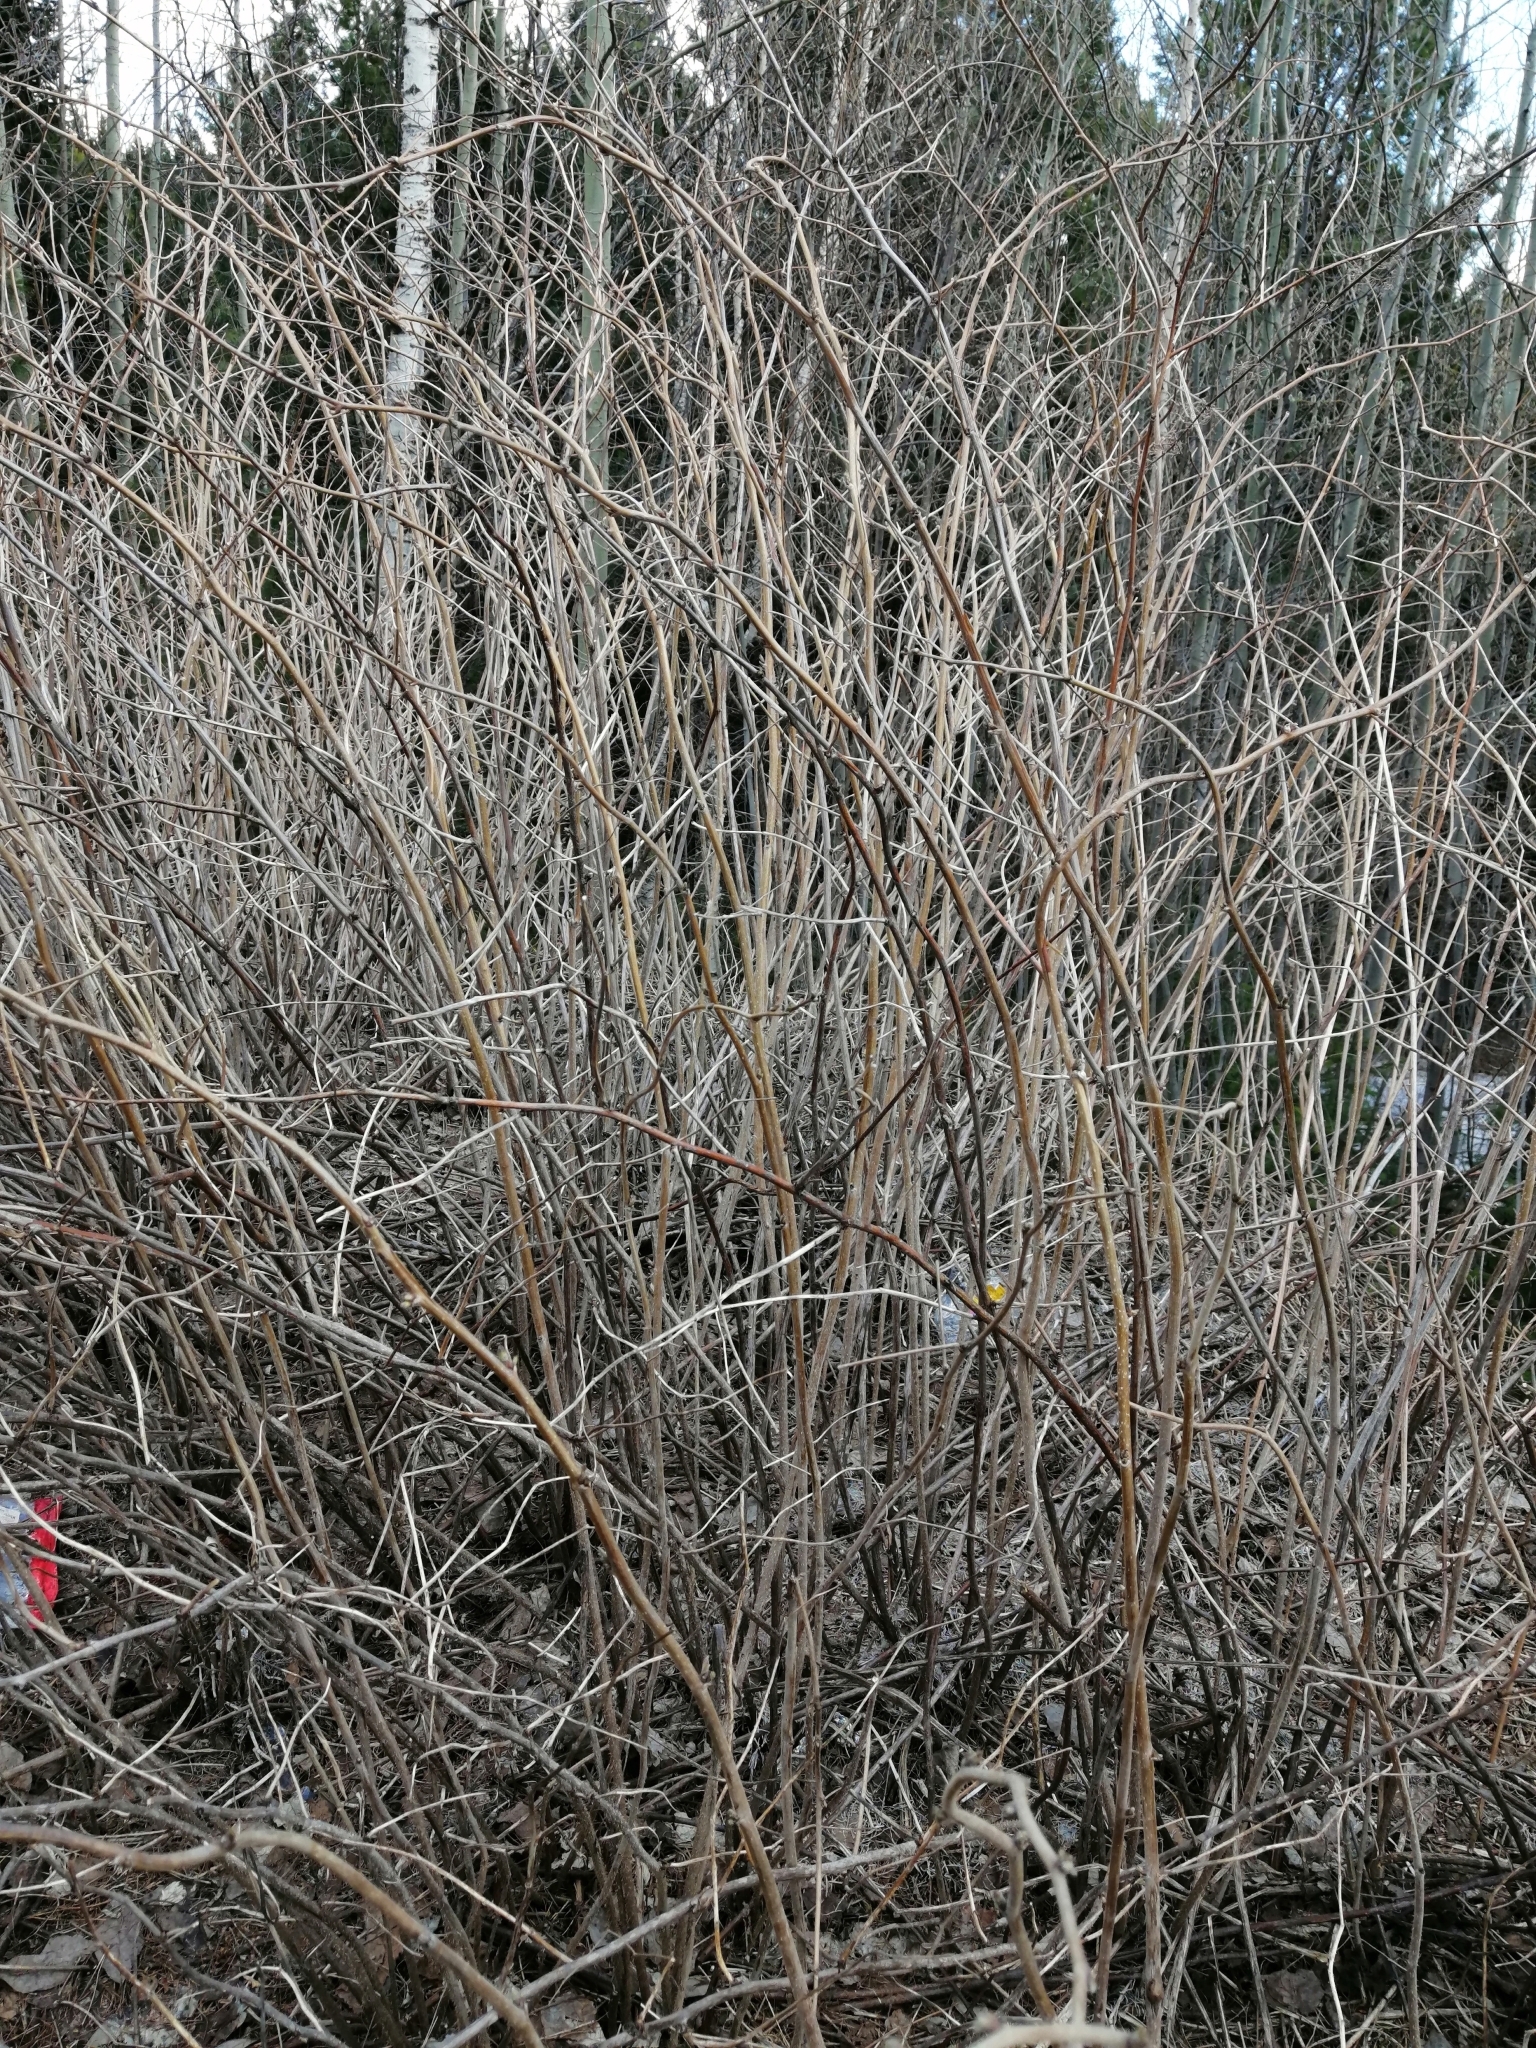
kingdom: Plantae
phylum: Tracheophyta
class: Magnoliopsida
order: Rosales
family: Rosaceae
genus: Rubus
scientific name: Rubus idaeus
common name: Raspberry
